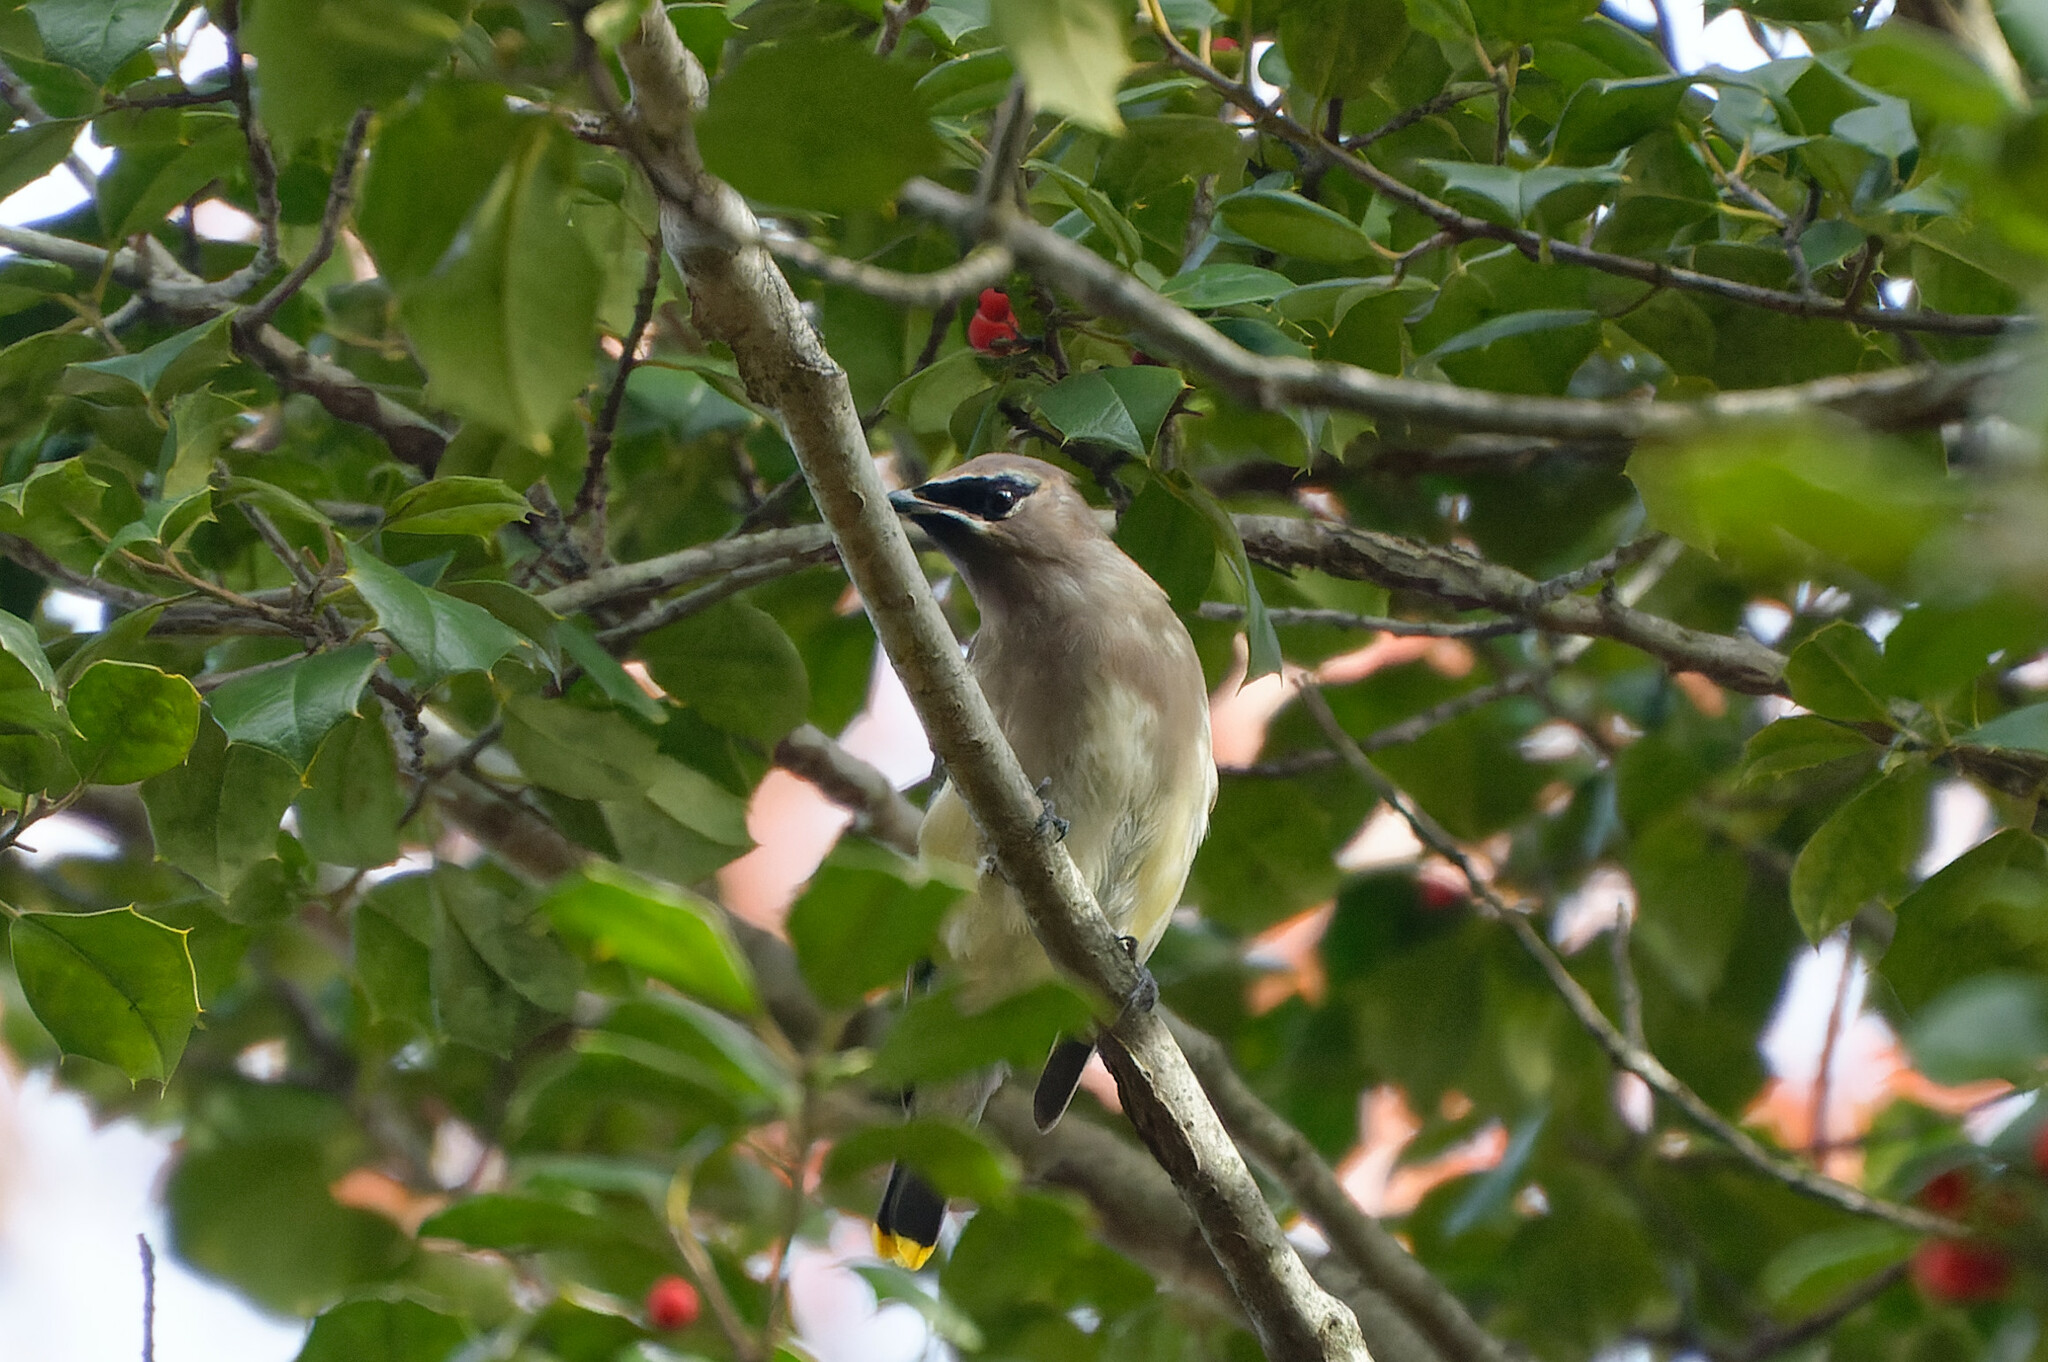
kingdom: Animalia
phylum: Chordata
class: Aves
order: Passeriformes
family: Bombycillidae
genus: Bombycilla
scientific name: Bombycilla cedrorum
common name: Cedar waxwing
